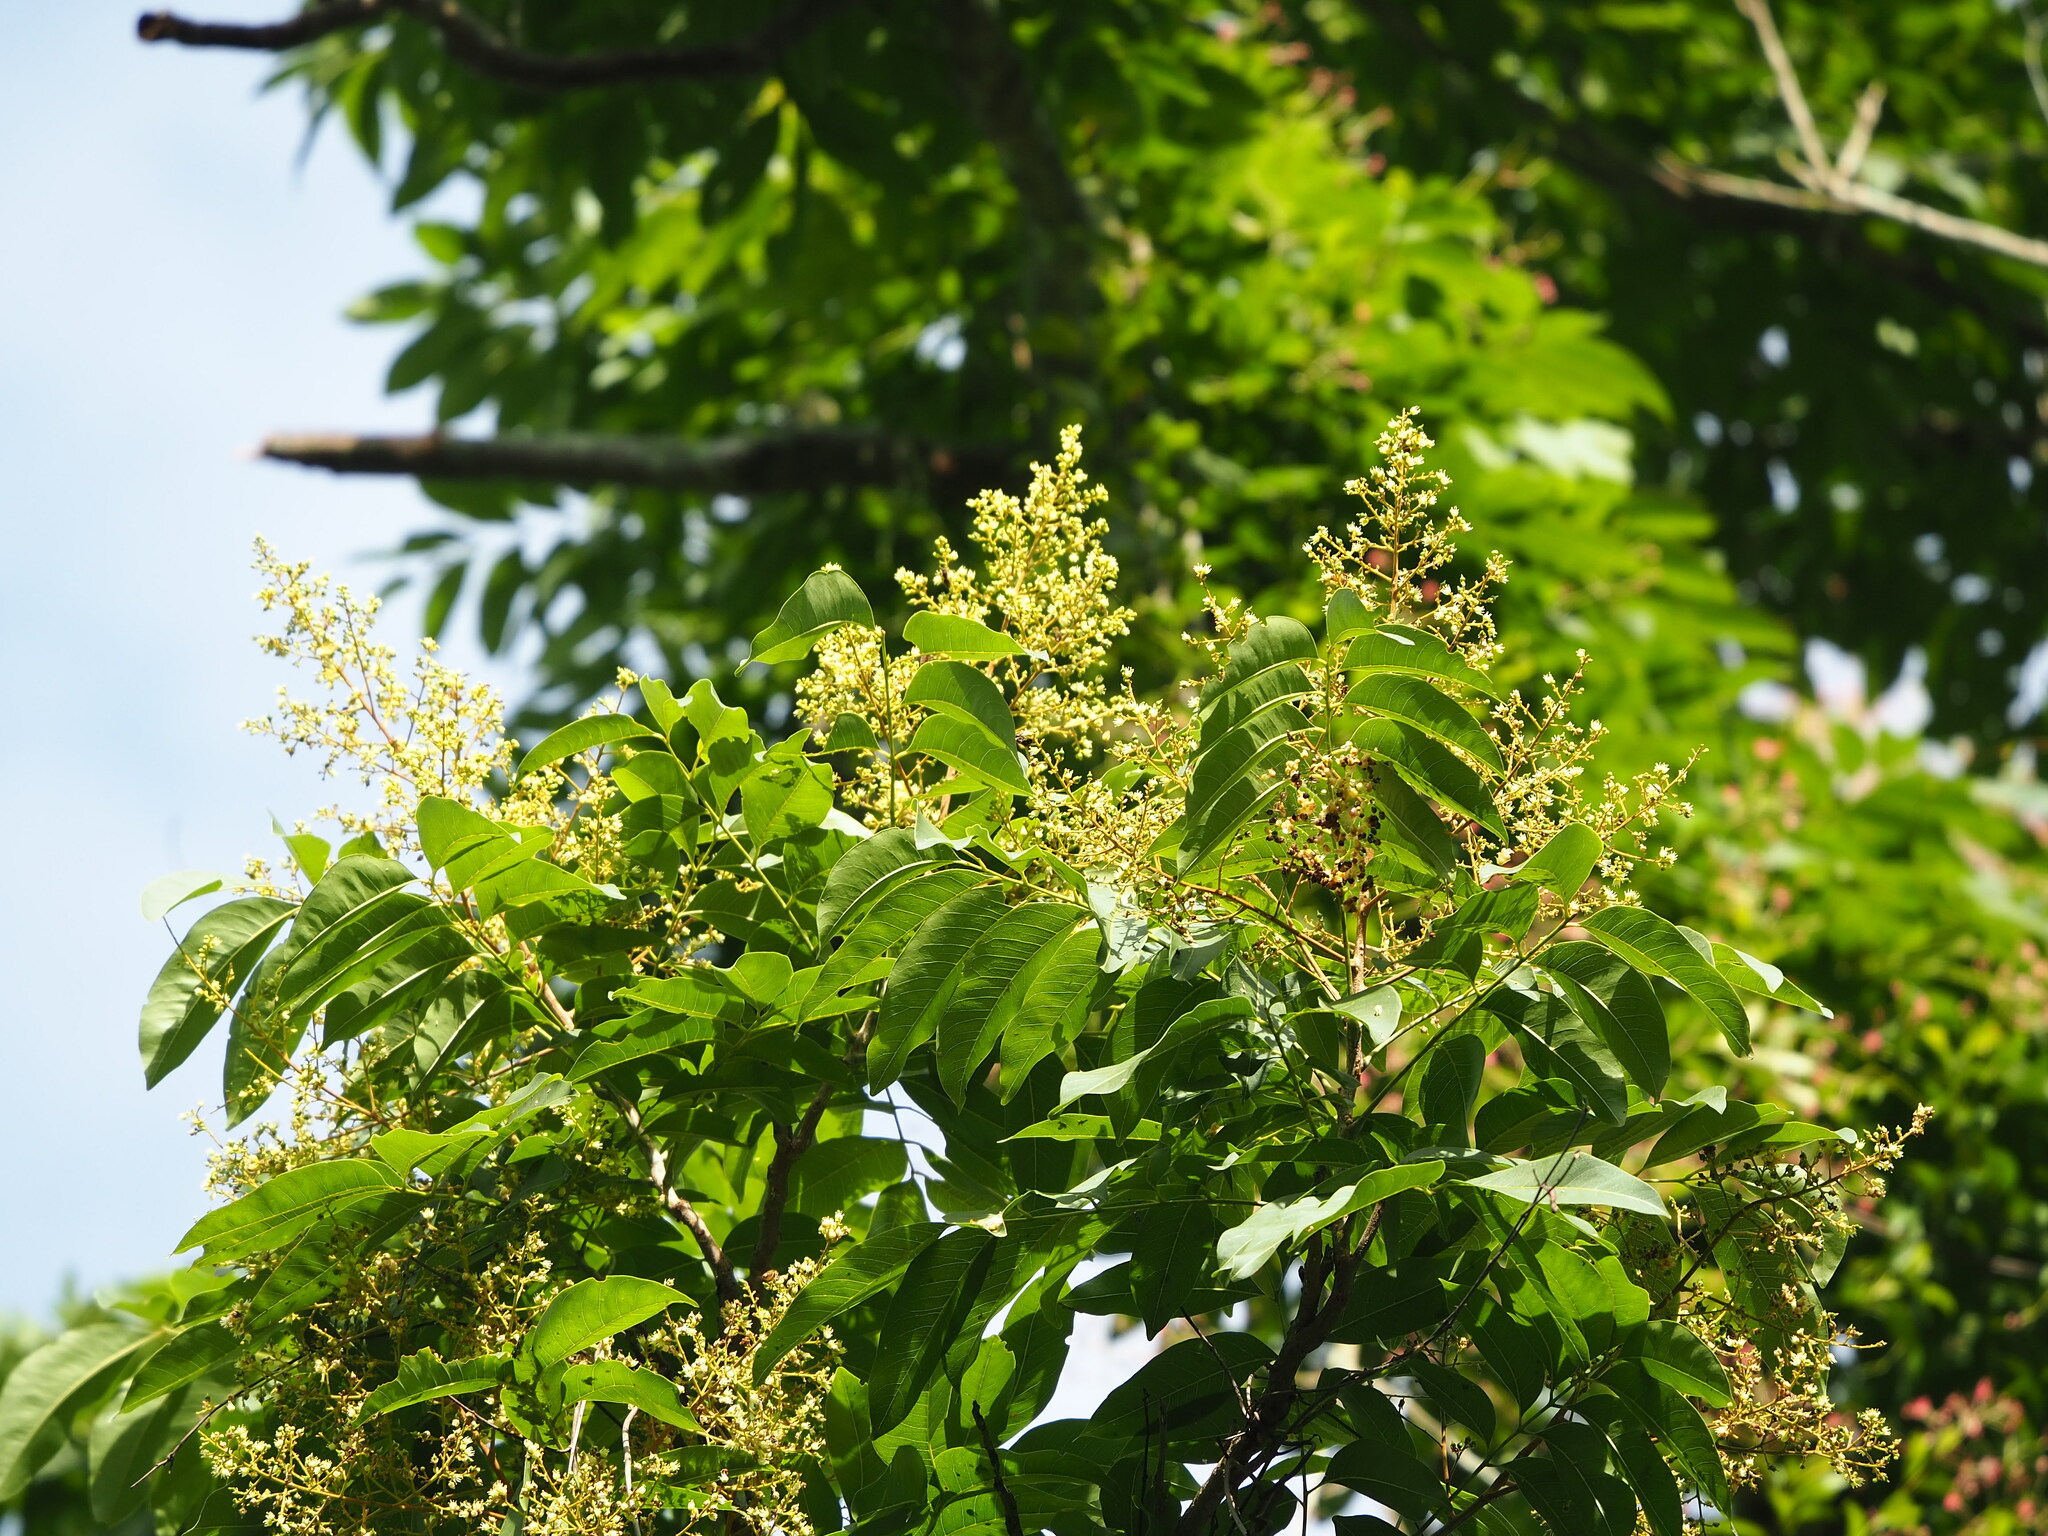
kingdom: Plantae
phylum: Tracheophyta
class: Magnoliopsida
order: Sapindales
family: Sapindaceae
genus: Sapindus
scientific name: Sapindus mukorossi
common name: Chinese soapberry
